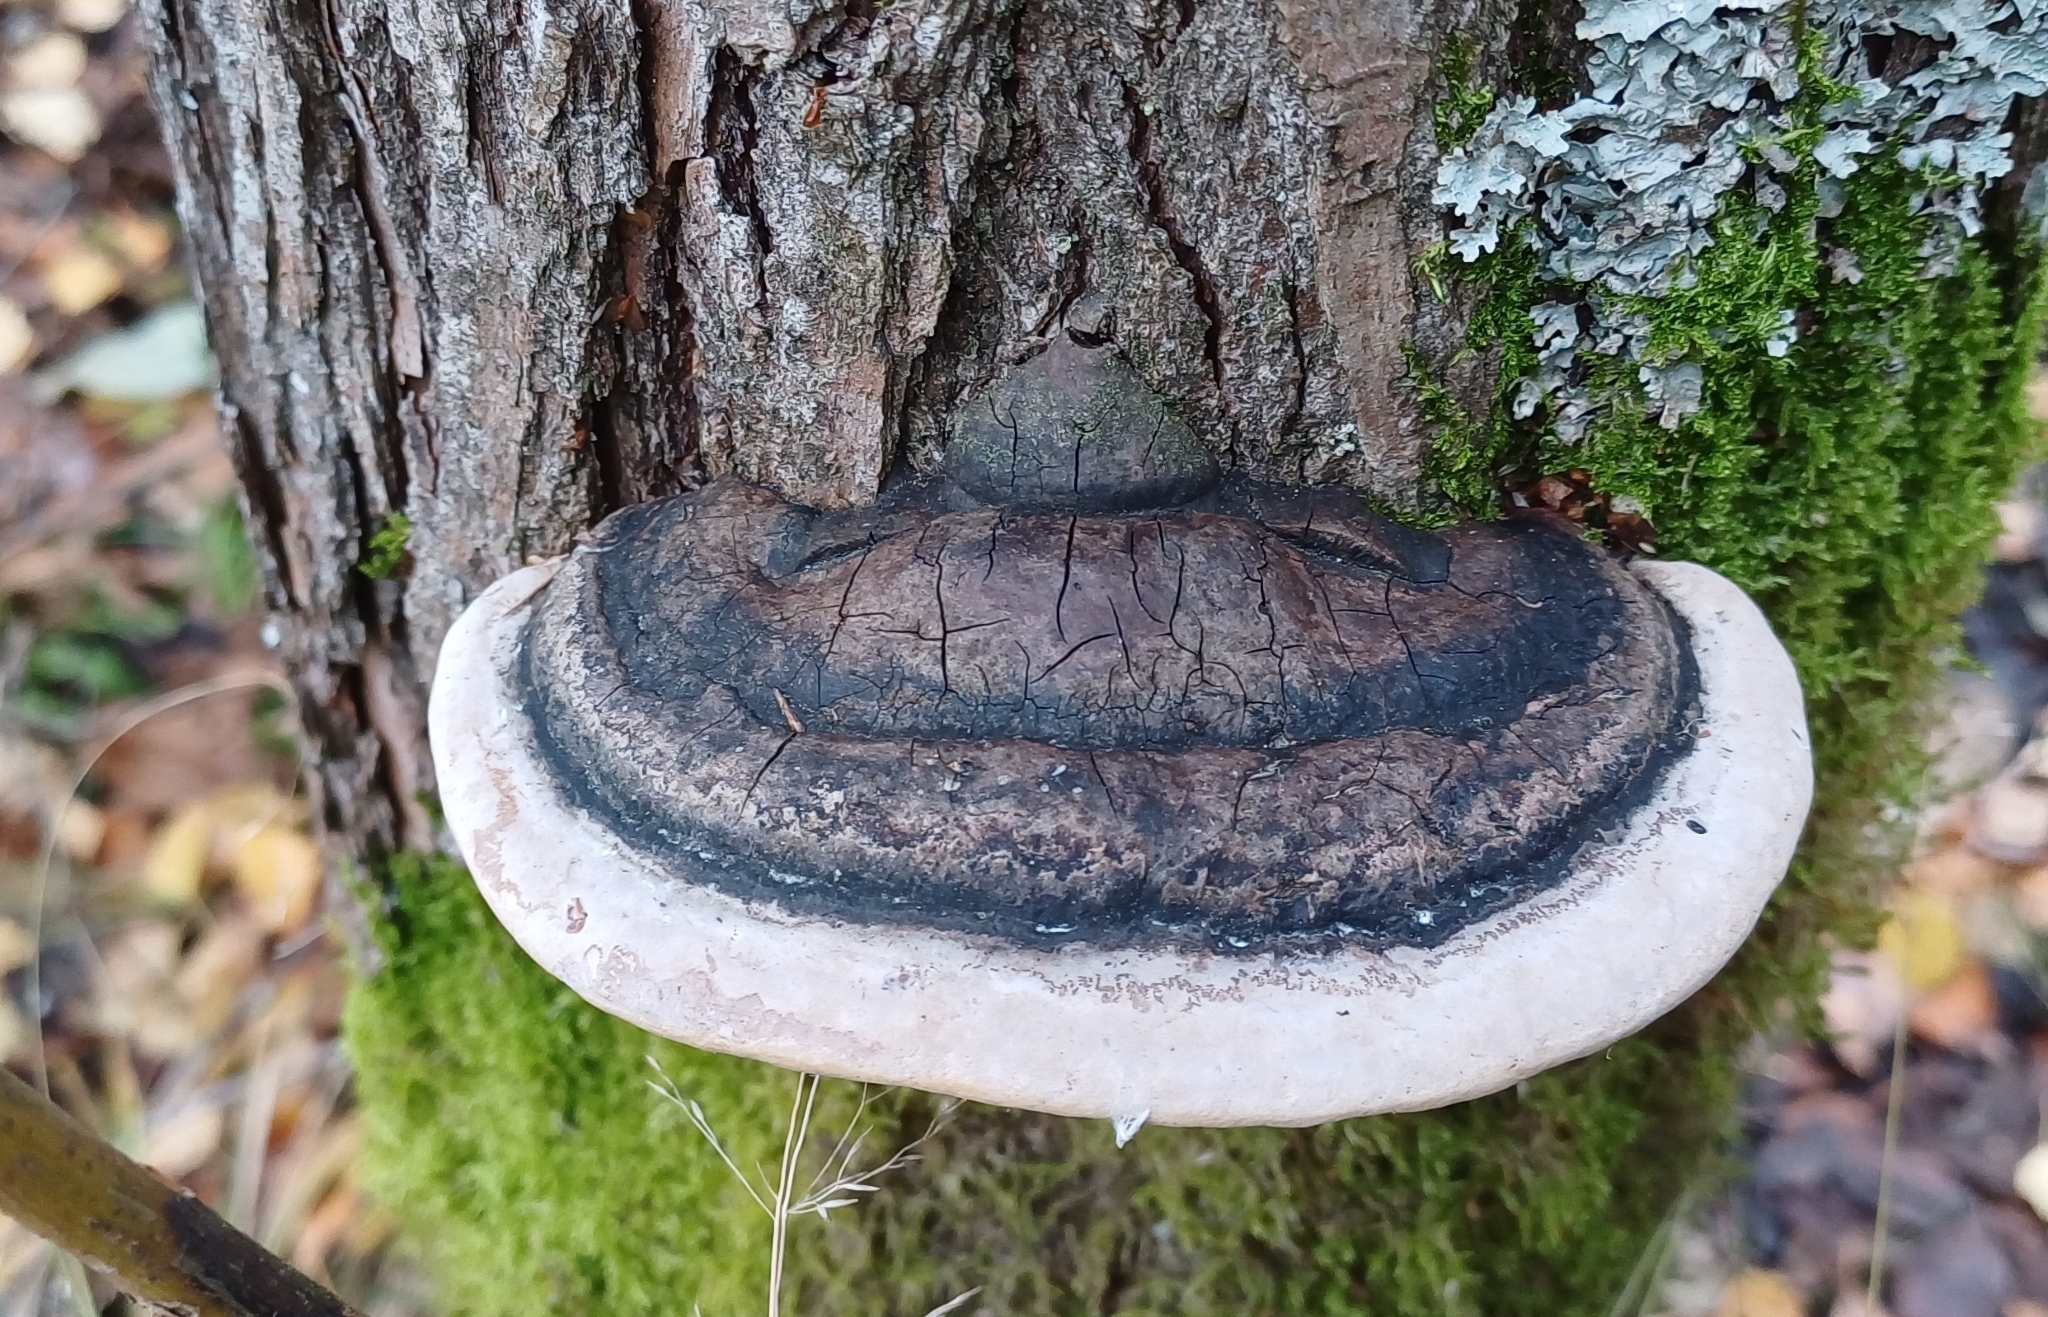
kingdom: Fungi
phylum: Basidiomycota
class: Agaricomycetes
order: Hymenochaetales
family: Hymenochaetaceae
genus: Phellinus
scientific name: Phellinus igniarius
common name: Willow bracket
